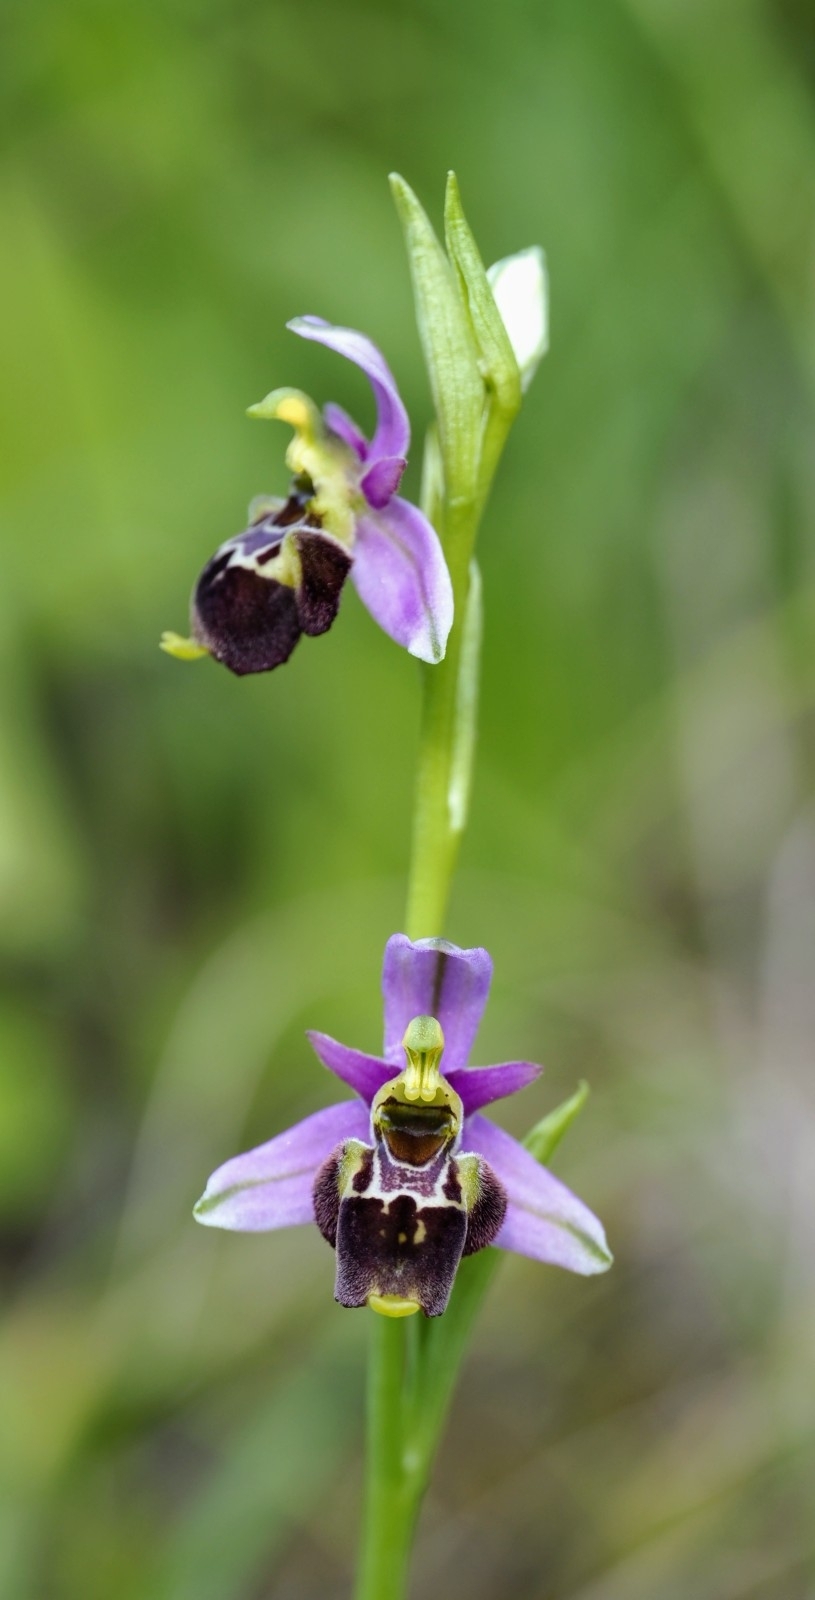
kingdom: Plantae
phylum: Tracheophyta
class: Liliopsida
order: Asparagales
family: Orchidaceae
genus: Ophrys
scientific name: Ophrys holosericea
